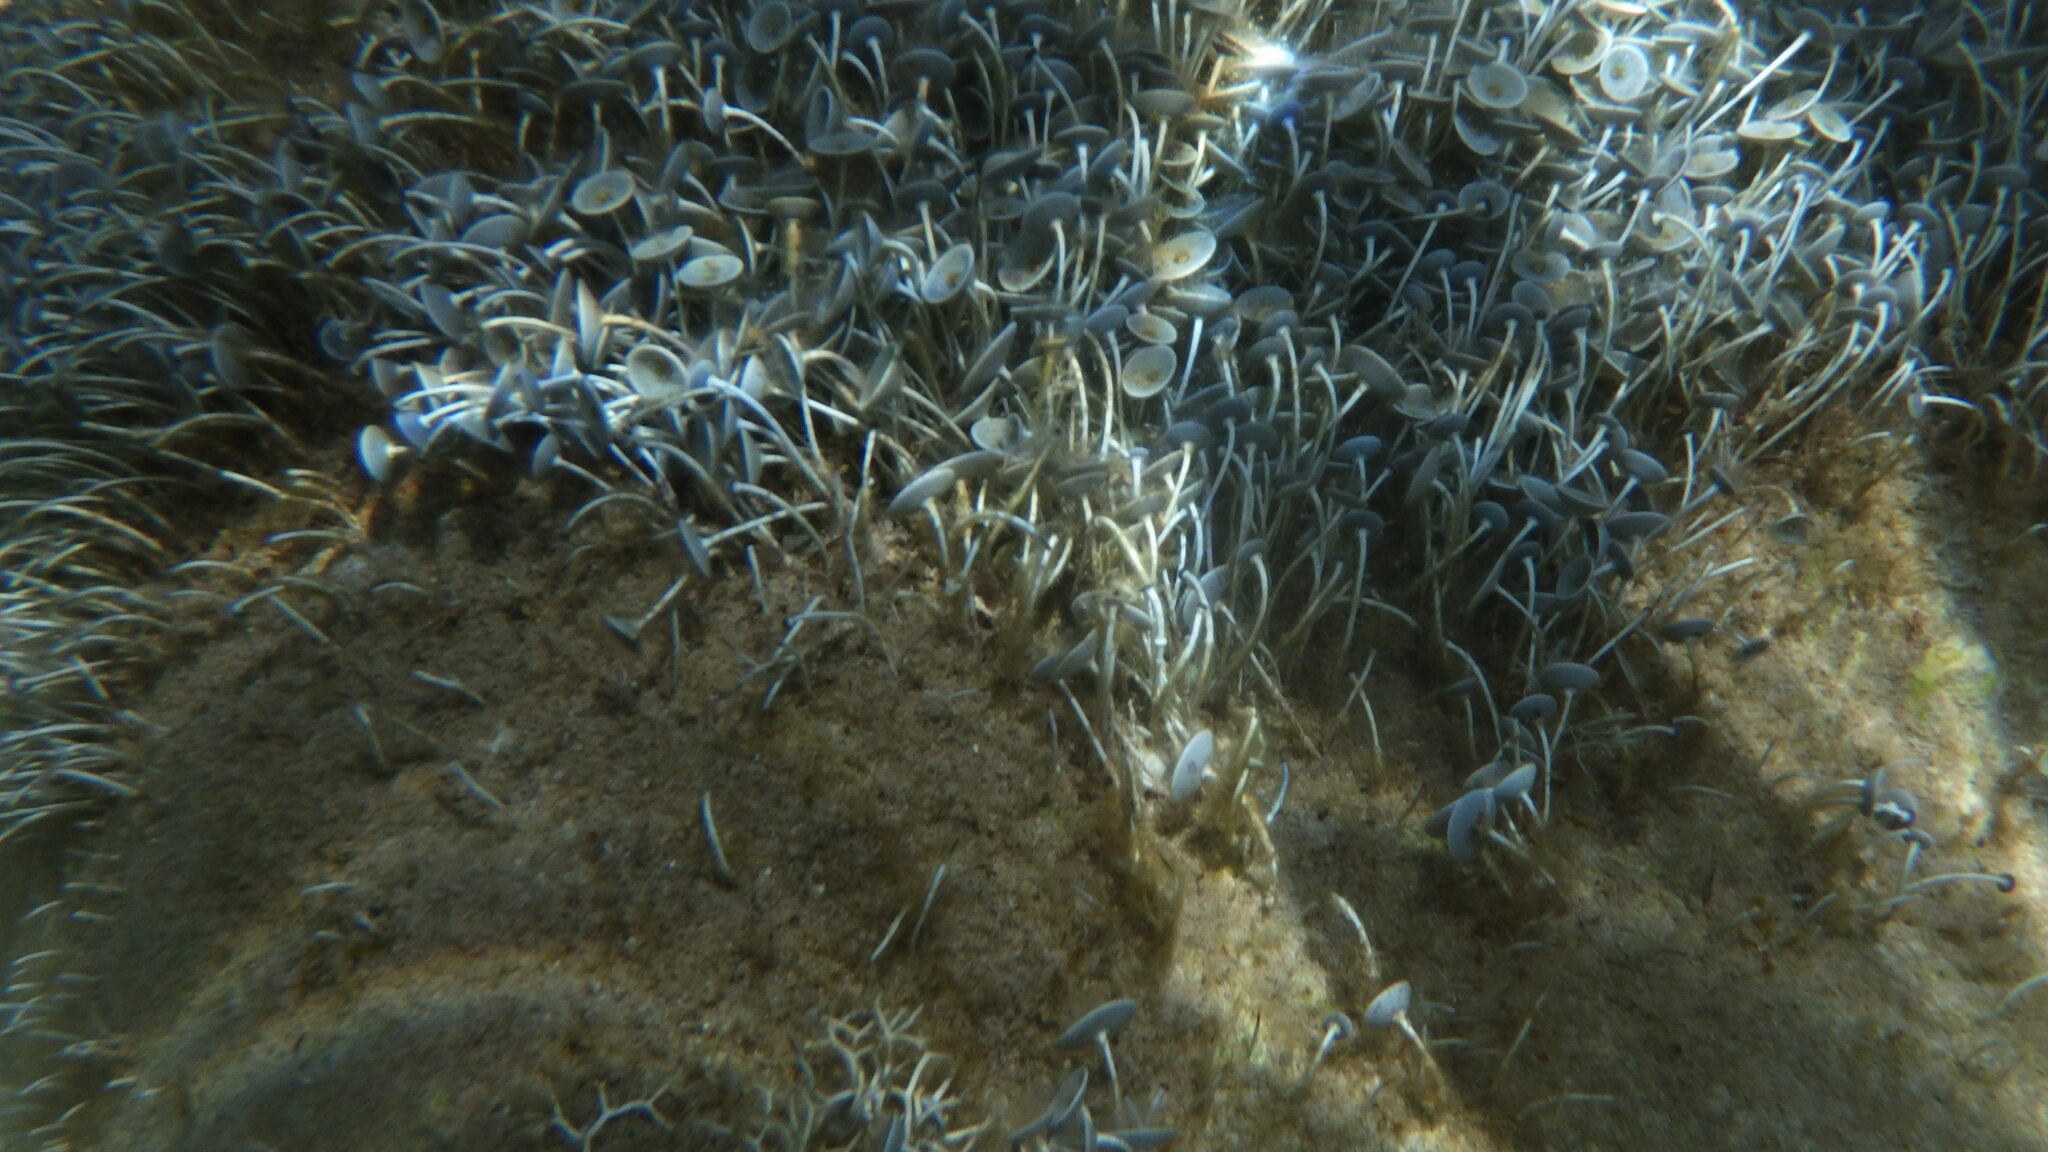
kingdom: Plantae
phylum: Chlorophyta
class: Ulvophyceae
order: Dasycladales
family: Polyphysaceae
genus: Acetabularia
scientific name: Acetabularia acetabulum
